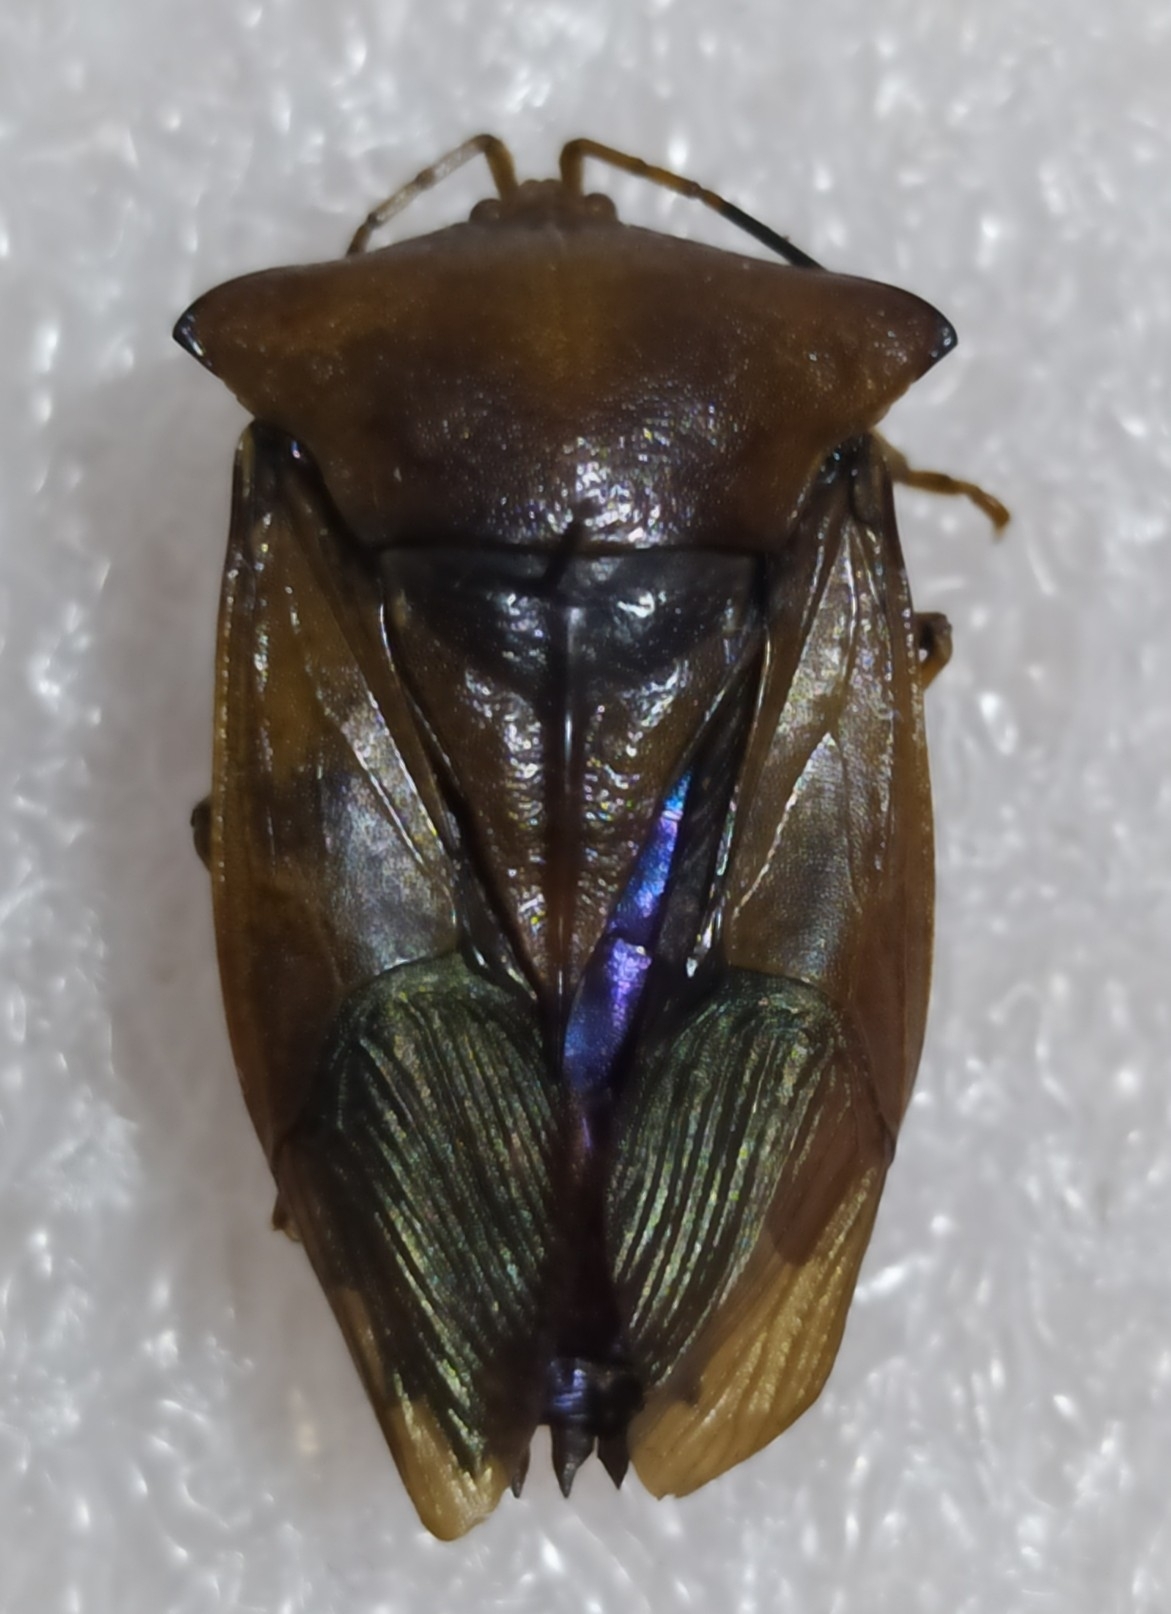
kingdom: Animalia
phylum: Arthropoda
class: Insecta
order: Hemiptera
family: Tessaratomidae
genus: Piezosternum
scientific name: Piezosternum subulatum
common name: Paula's giant shield bug
